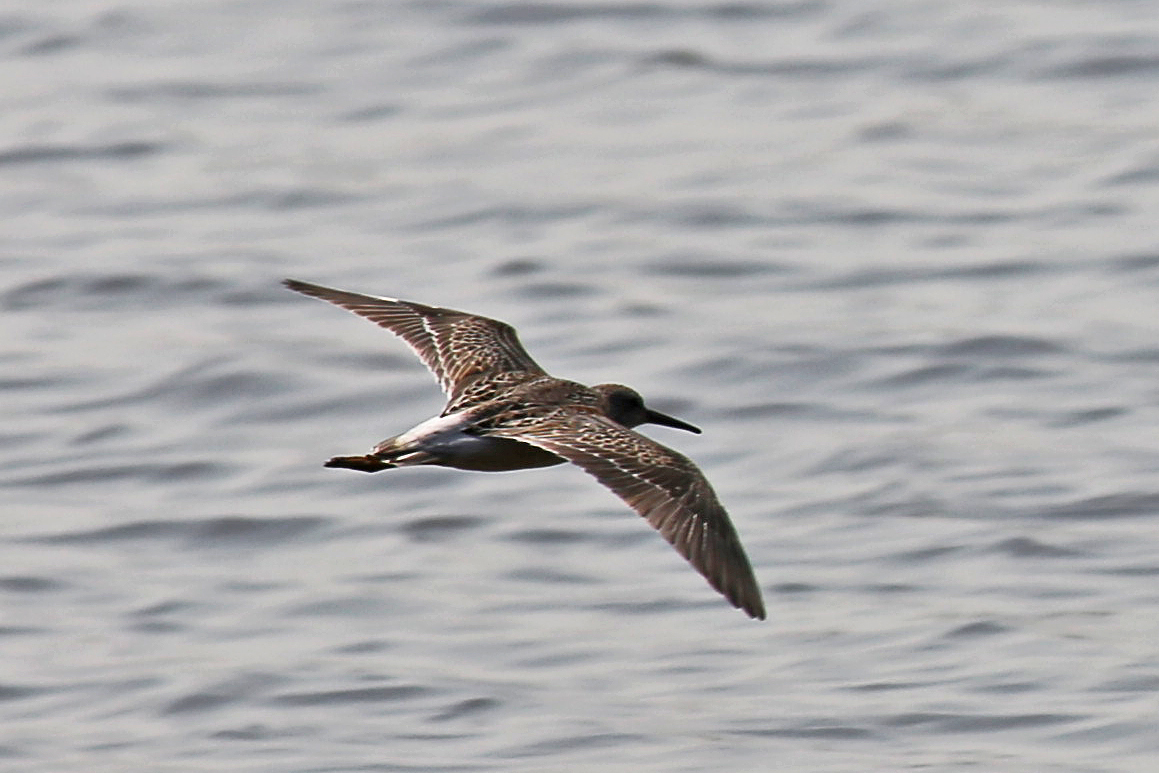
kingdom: Animalia
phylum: Chordata
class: Aves
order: Charadriiformes
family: Scolopacidae
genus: Calidris
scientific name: Calidris himantopus
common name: Stilt sandpiper
